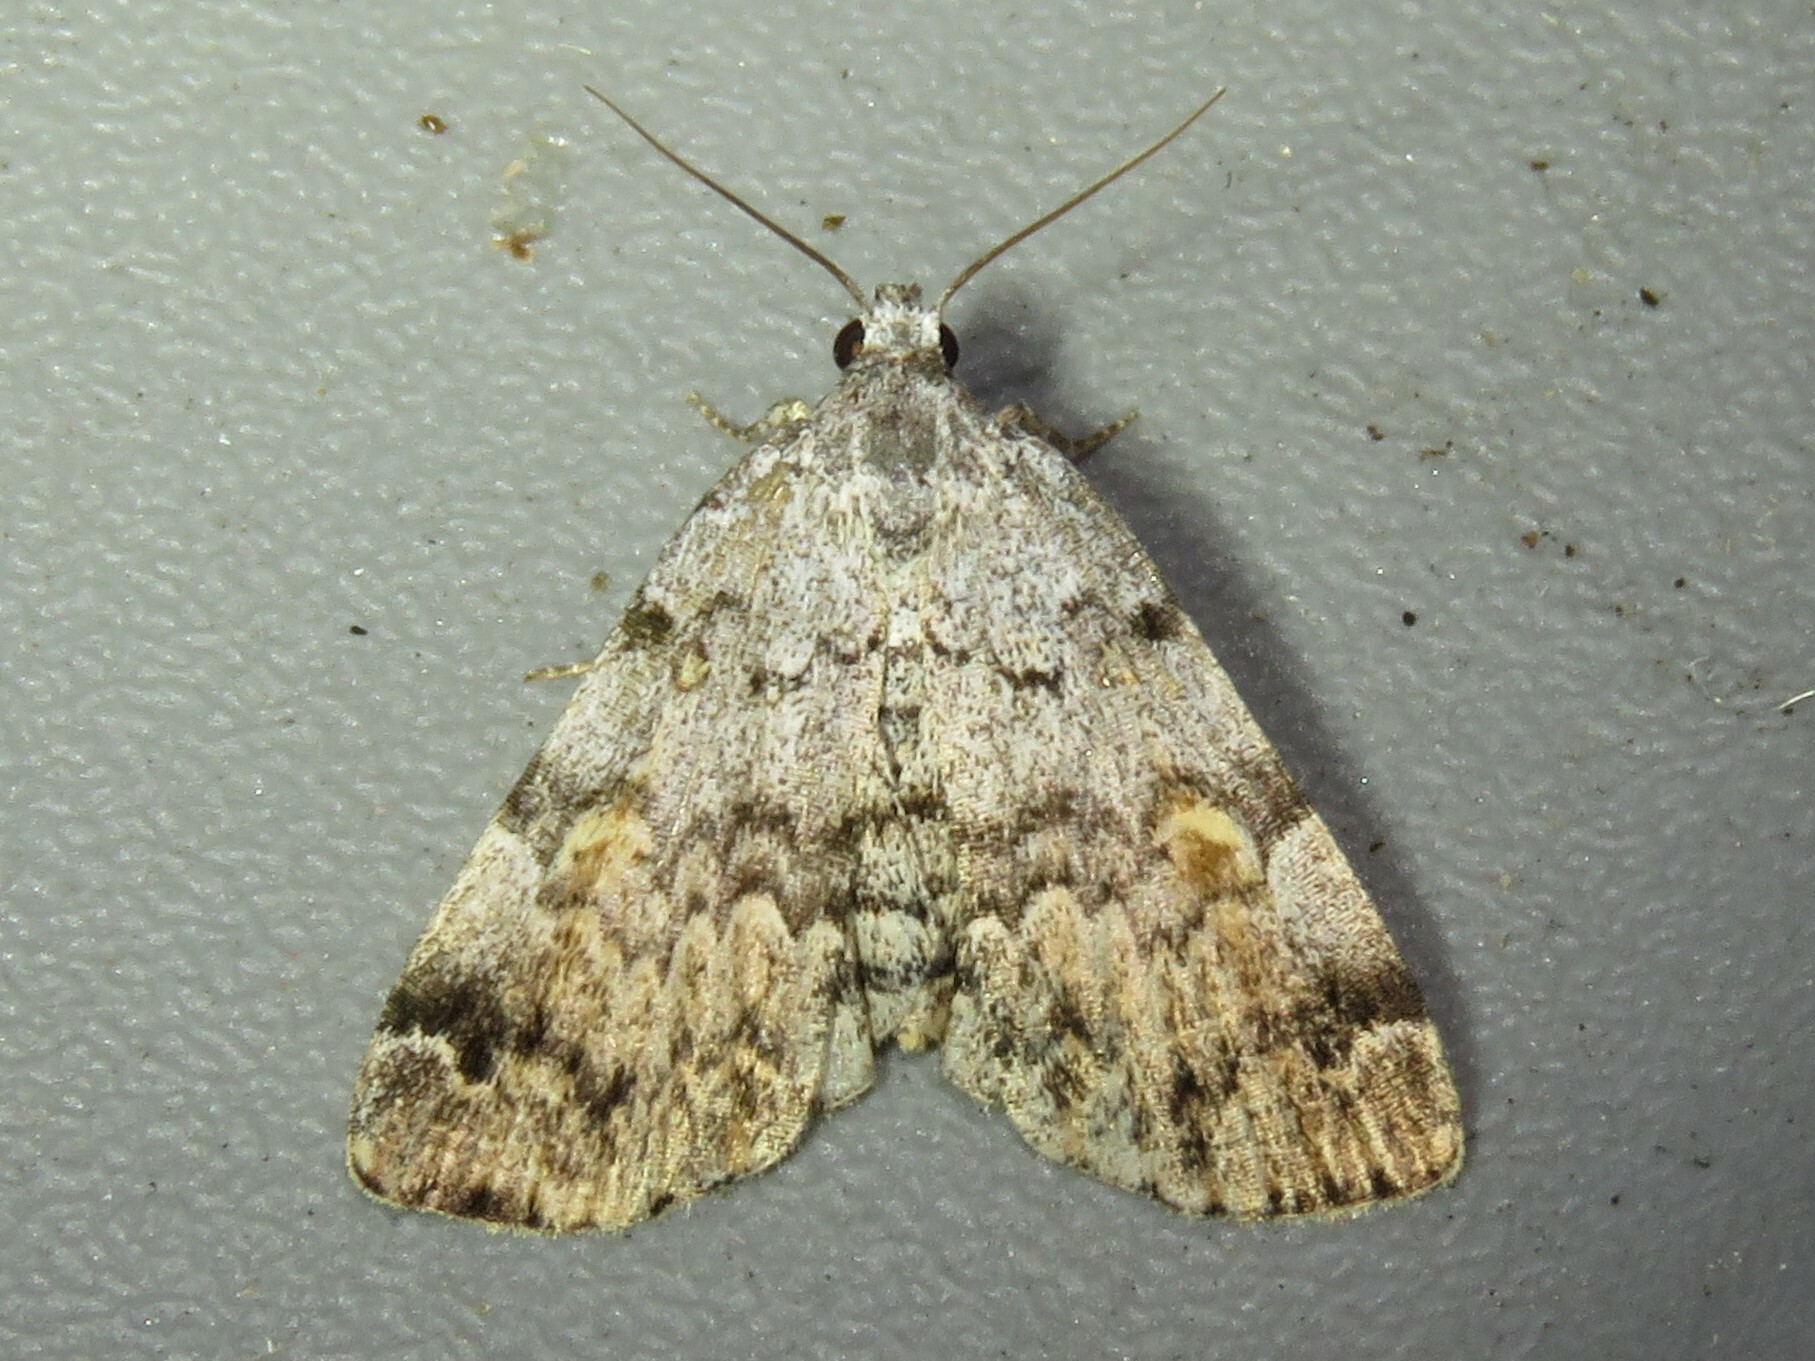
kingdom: Animalia
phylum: Arthropoda
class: Insecta
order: Lepidoptera
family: Erebidae
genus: Idia
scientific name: Idia americalis
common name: American idia moth
